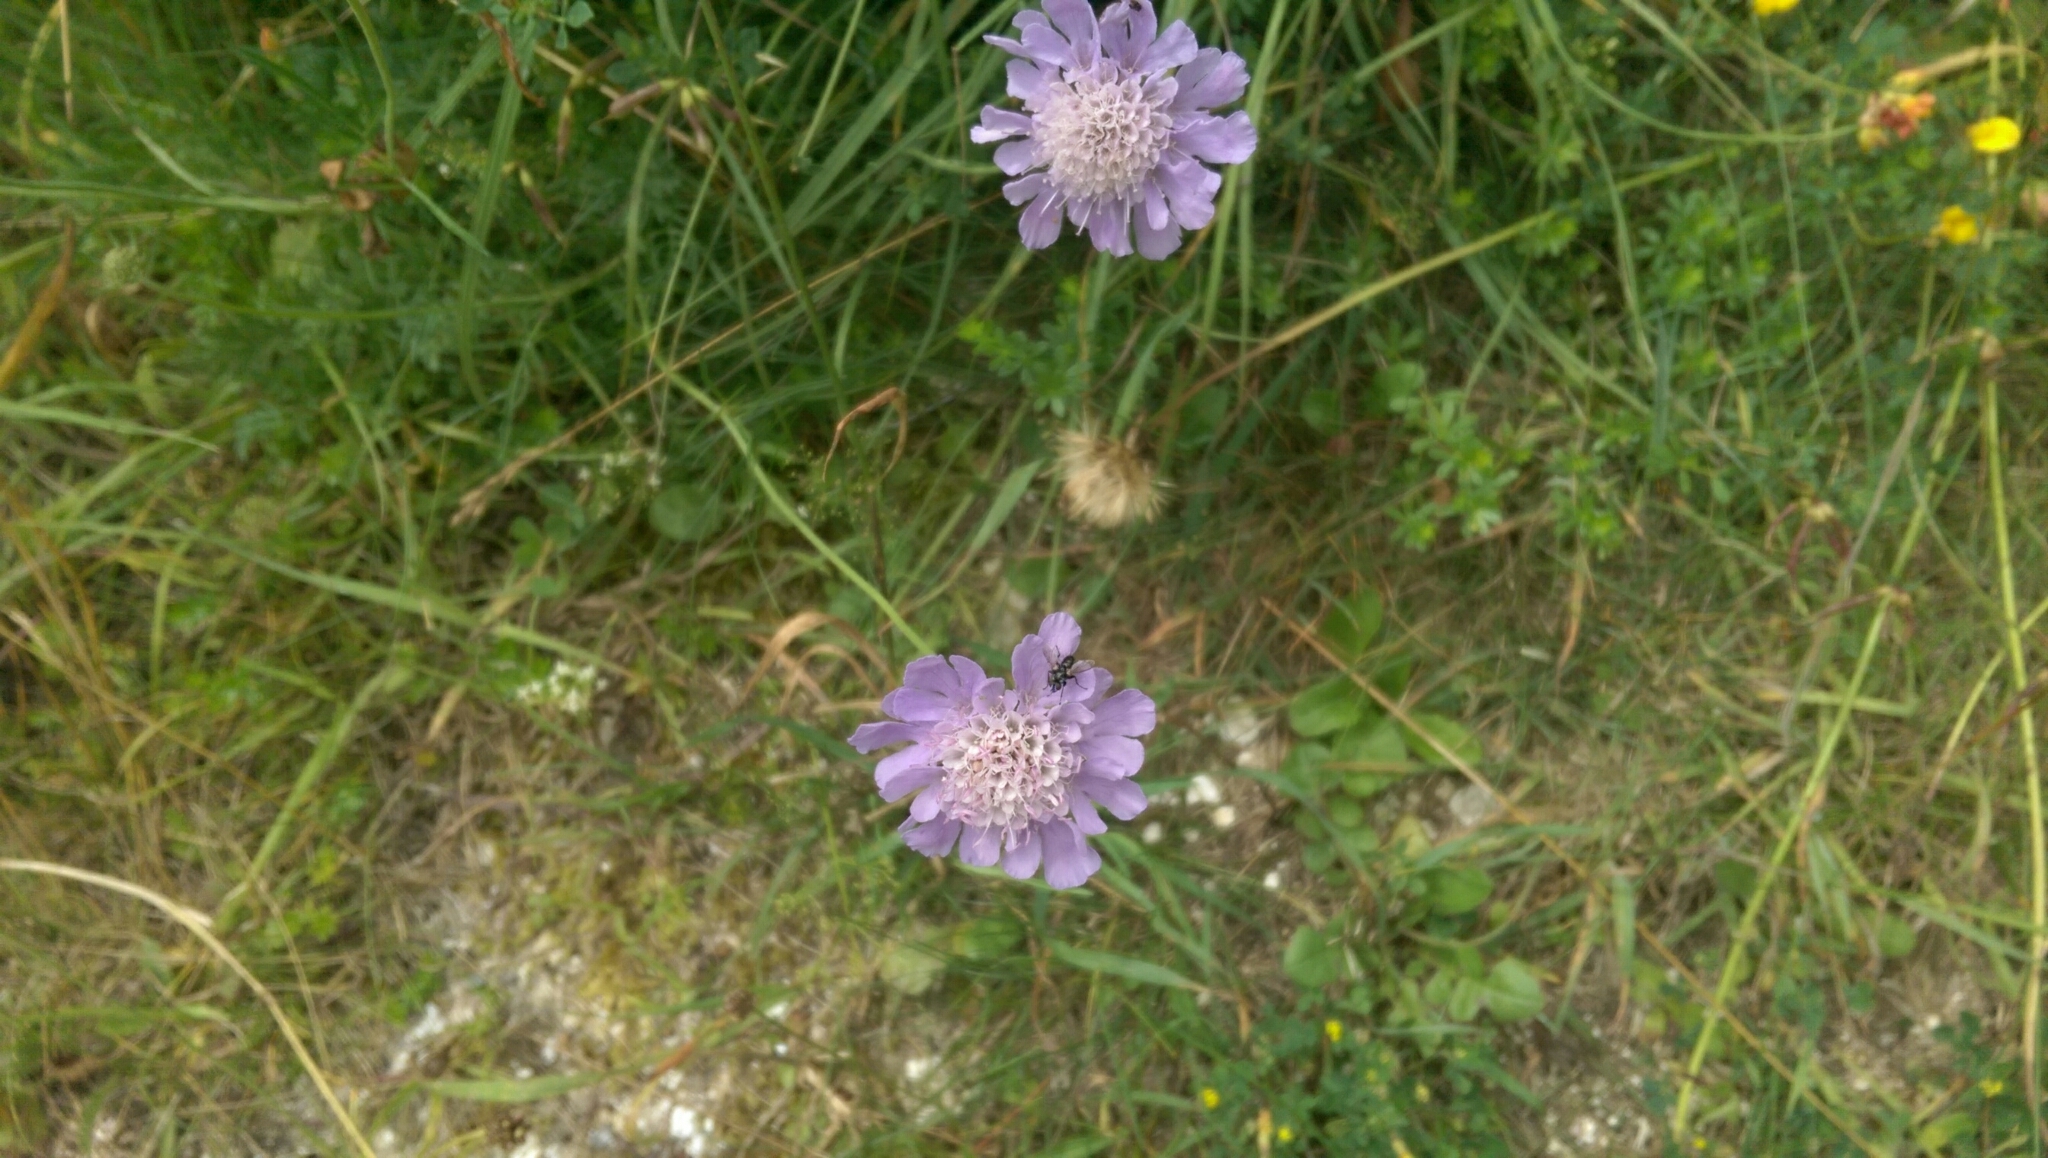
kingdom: Plantae
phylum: Tracheophyta
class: Magnoliopsida
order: Dipsacales
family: Caprifoliaceae
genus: Knautia
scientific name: Knautia arvensis
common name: Field scabiosa
